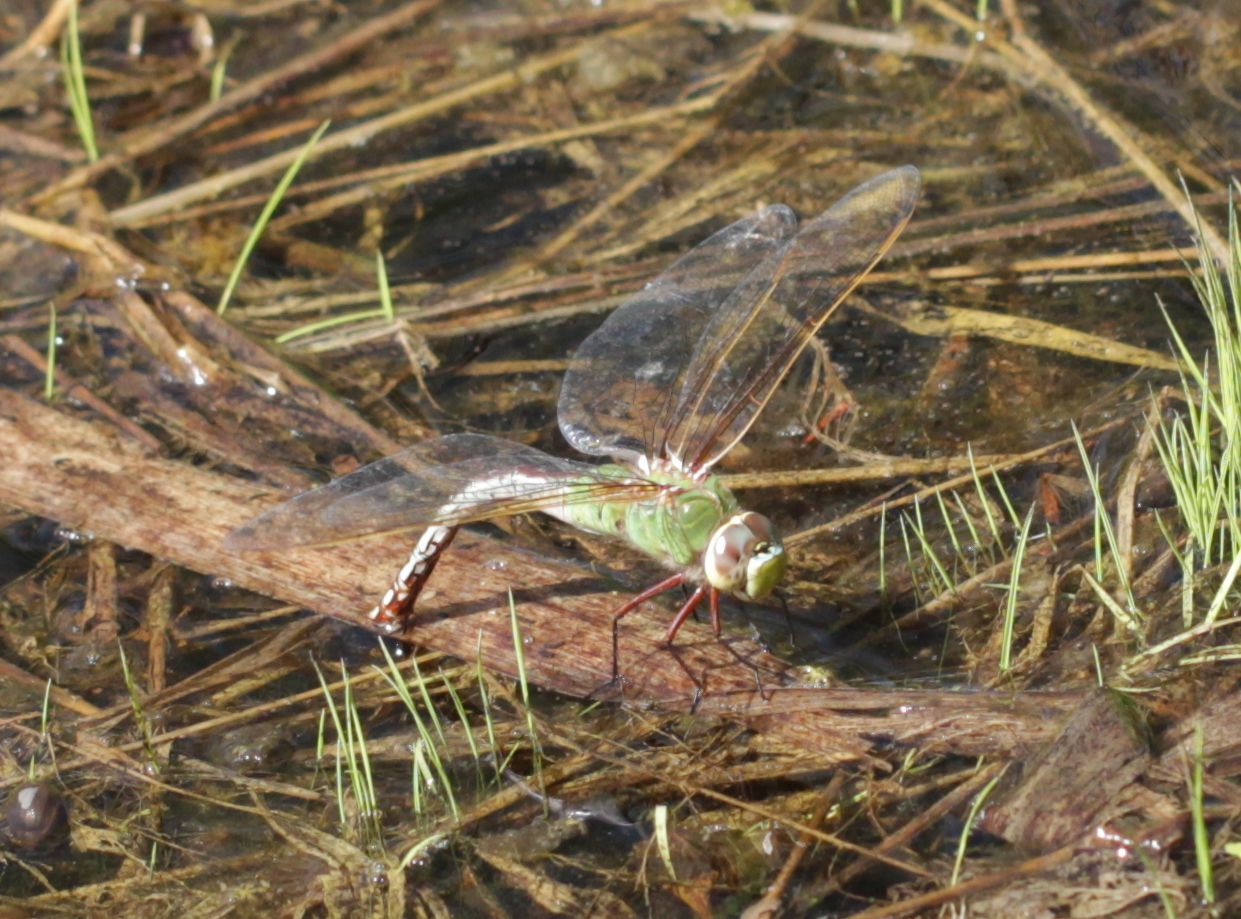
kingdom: Animalia
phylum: Arthropoda
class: Insecta
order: Odonata
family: Aeshnidae
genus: Anax
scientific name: Anax junius
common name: Common green darner
